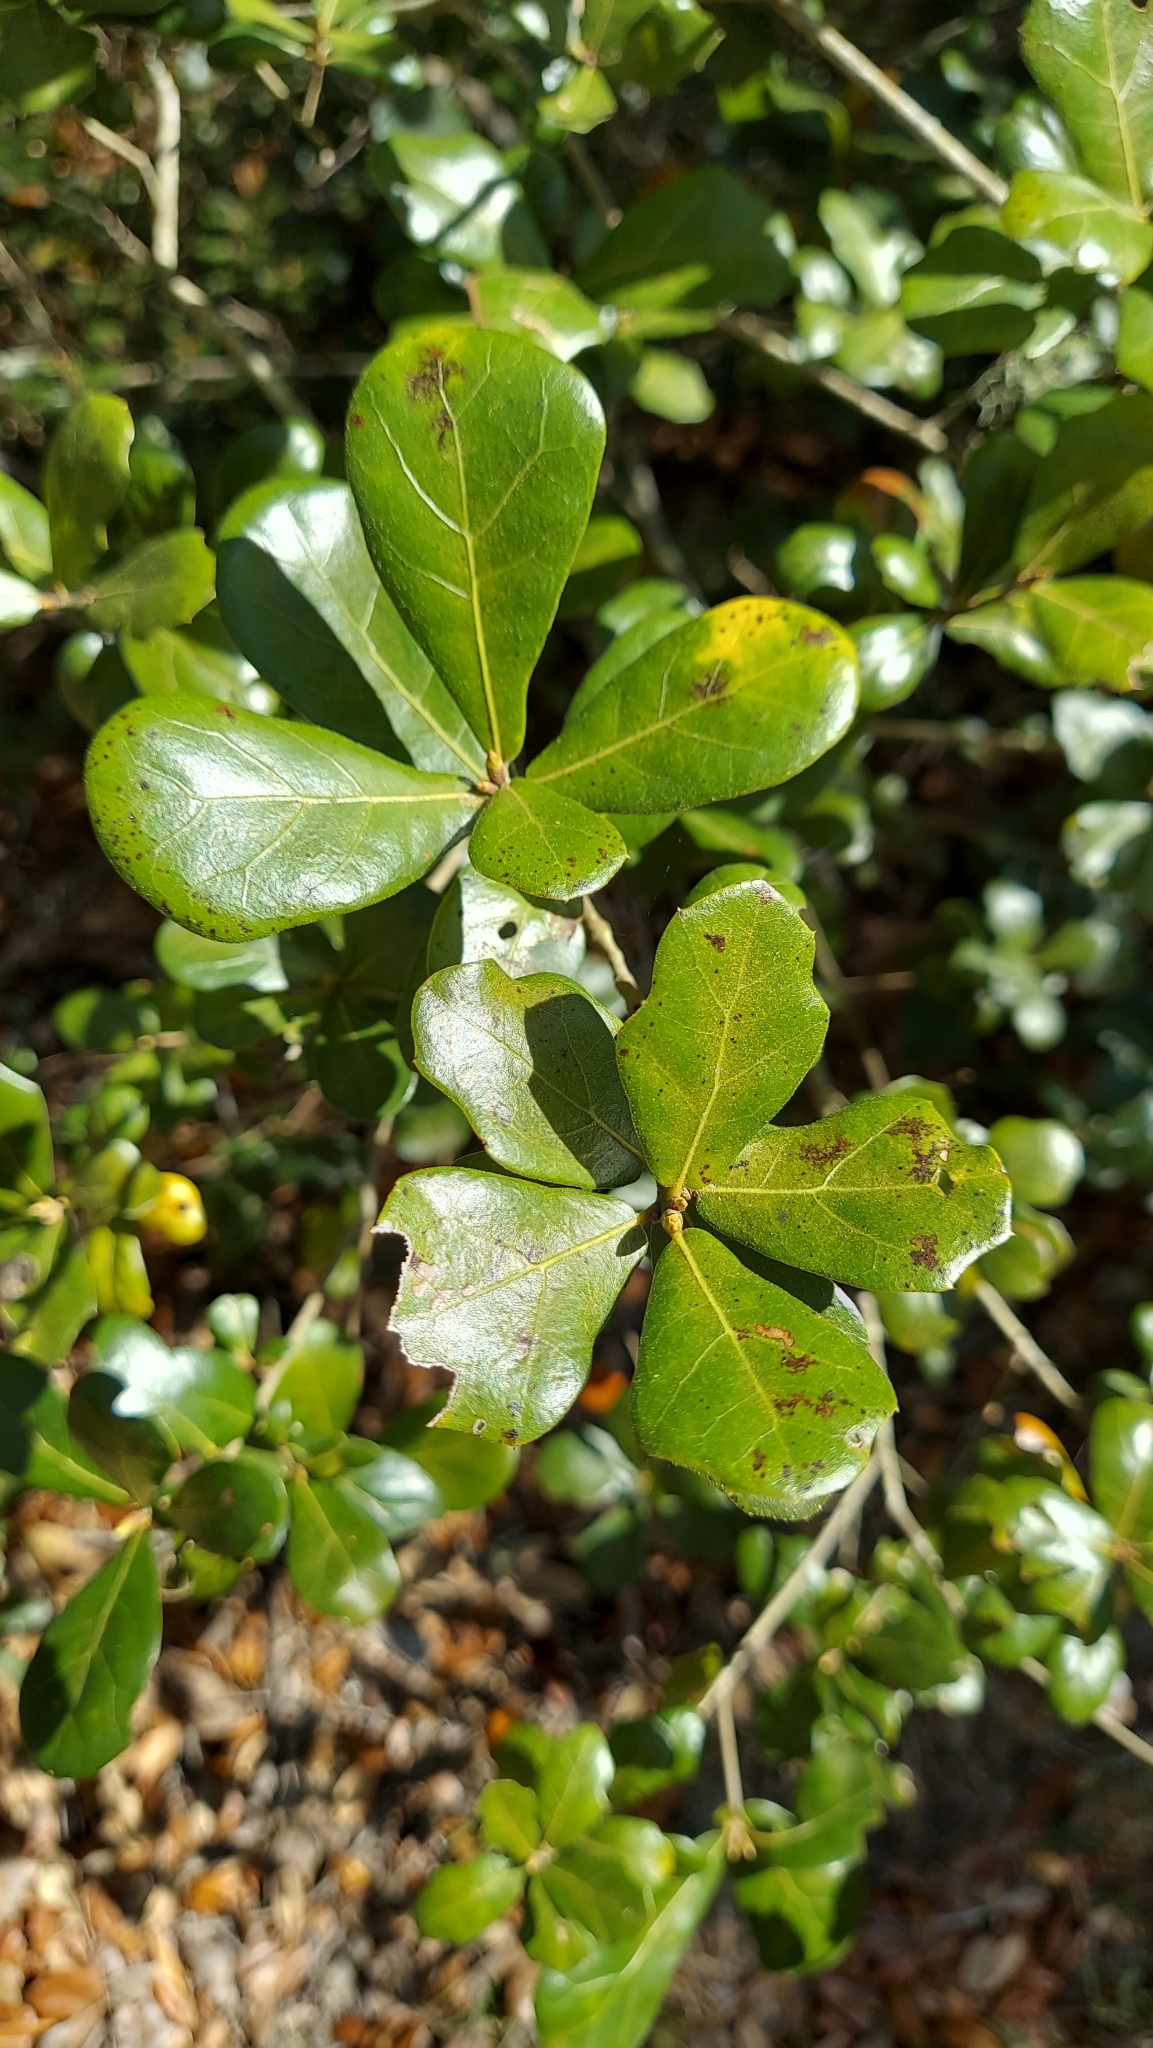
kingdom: Plantae
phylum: Tracheophyta
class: Magnoliopsida
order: Fagales
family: Fagaceae
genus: Quercus
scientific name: Quercus myrtifolia
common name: Myrtle oak
